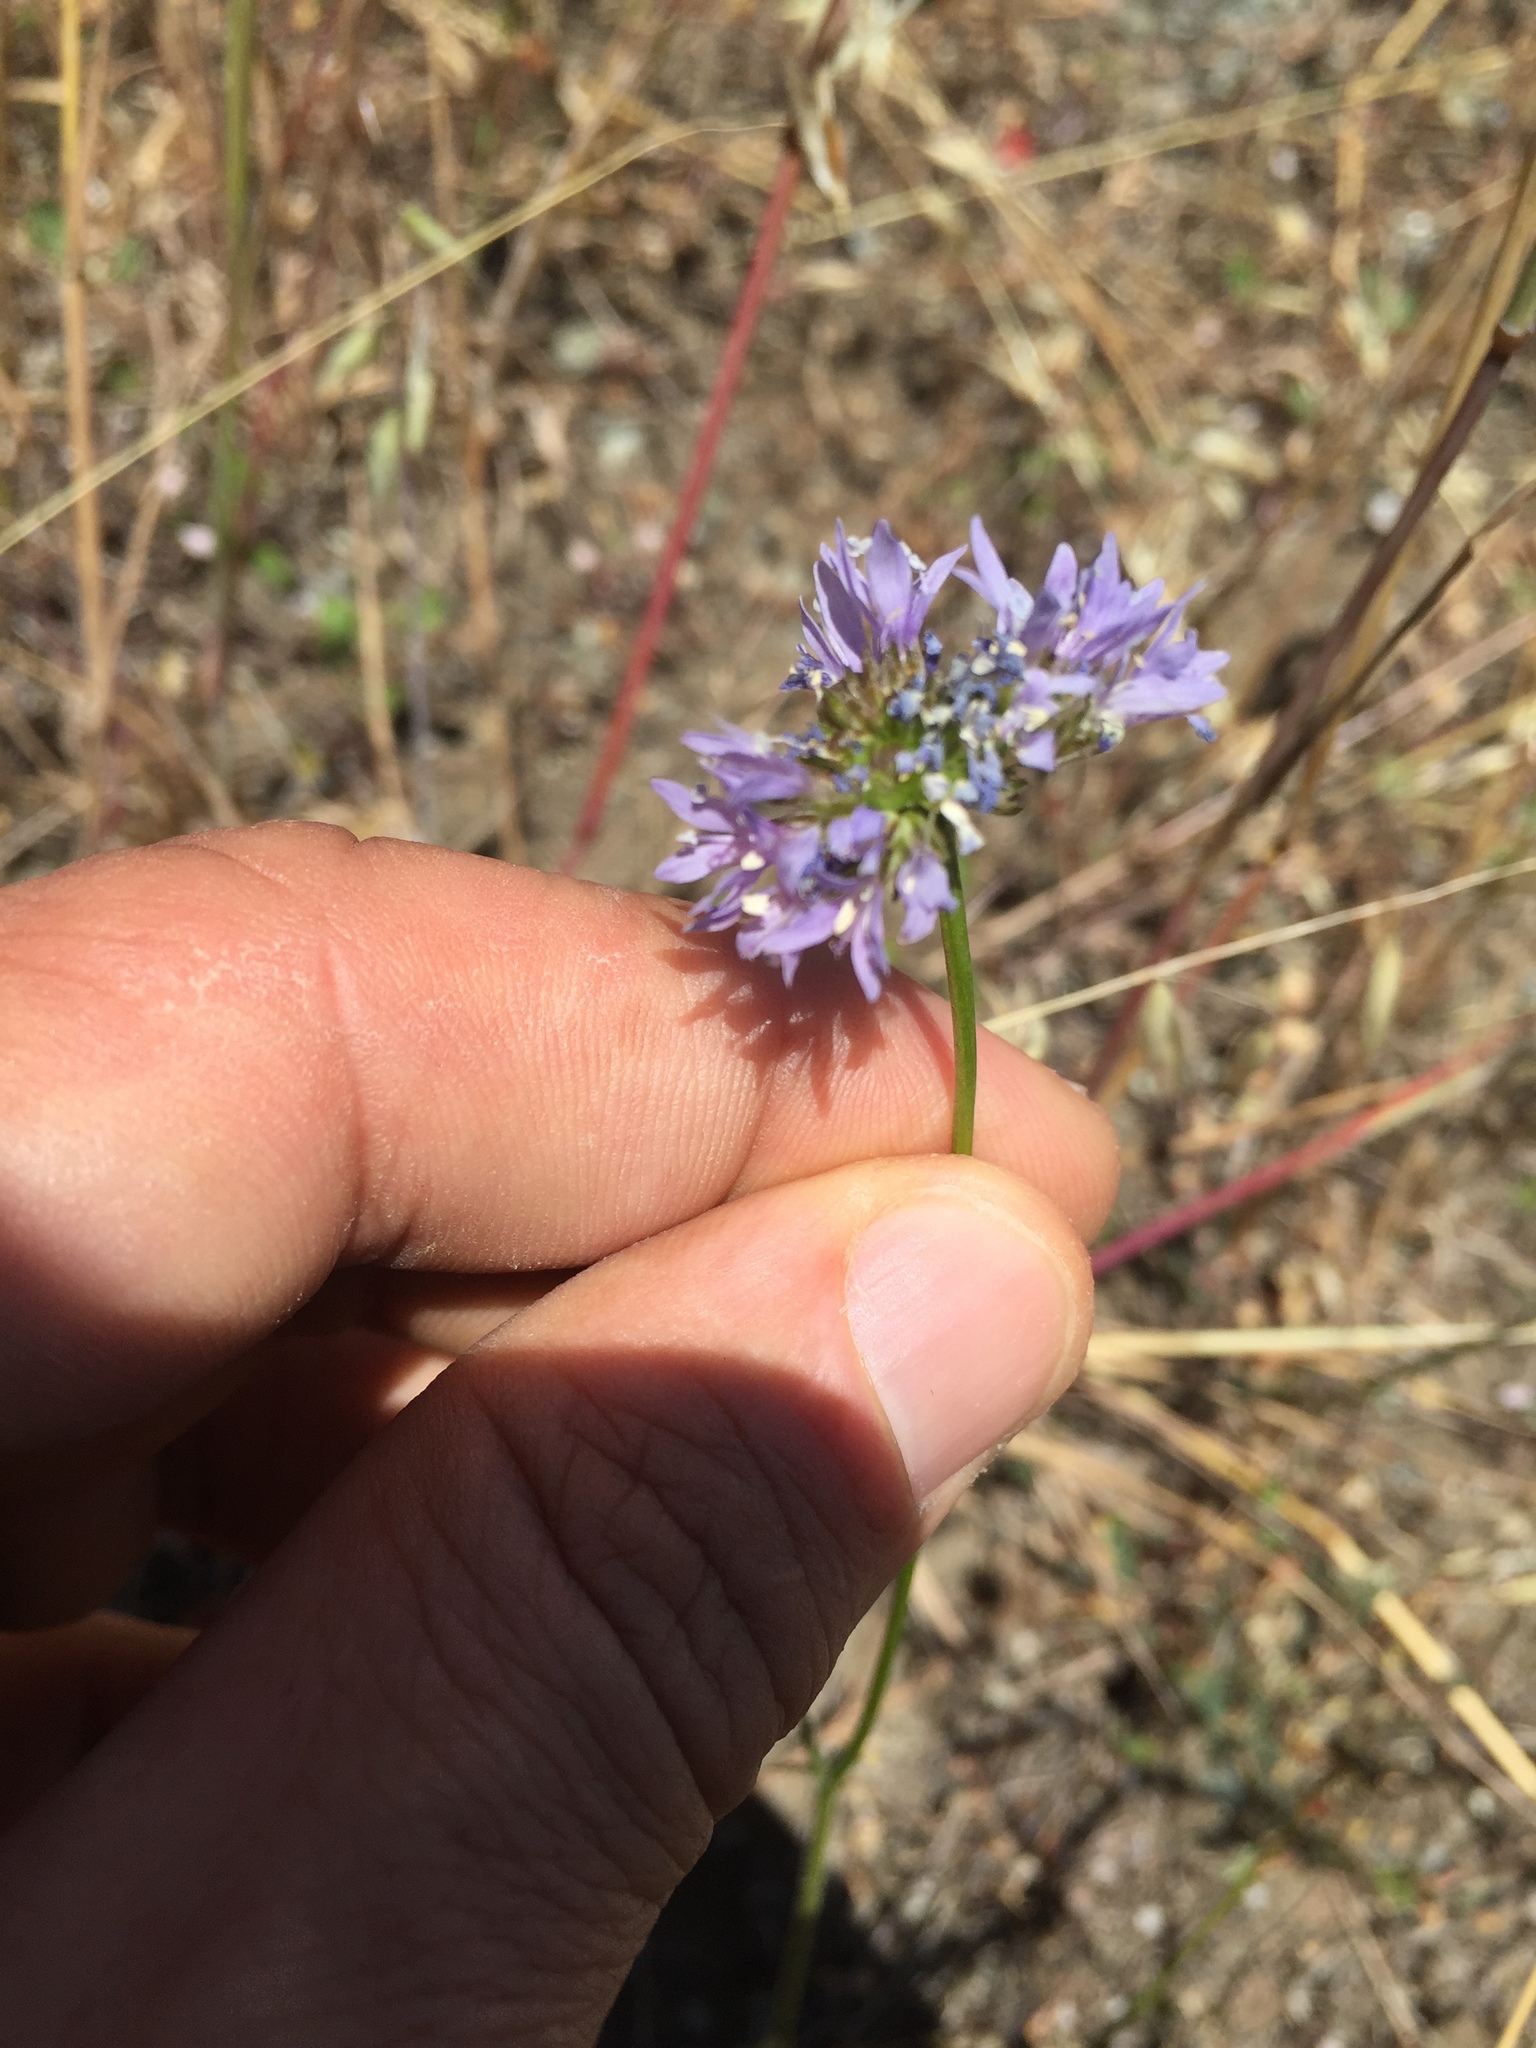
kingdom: Plantae
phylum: Tracheophyta
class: Magnoliopsida
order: Ericales
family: Polemoniaceae
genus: Gilia
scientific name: Gilia capitata
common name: Bluehead gilia
